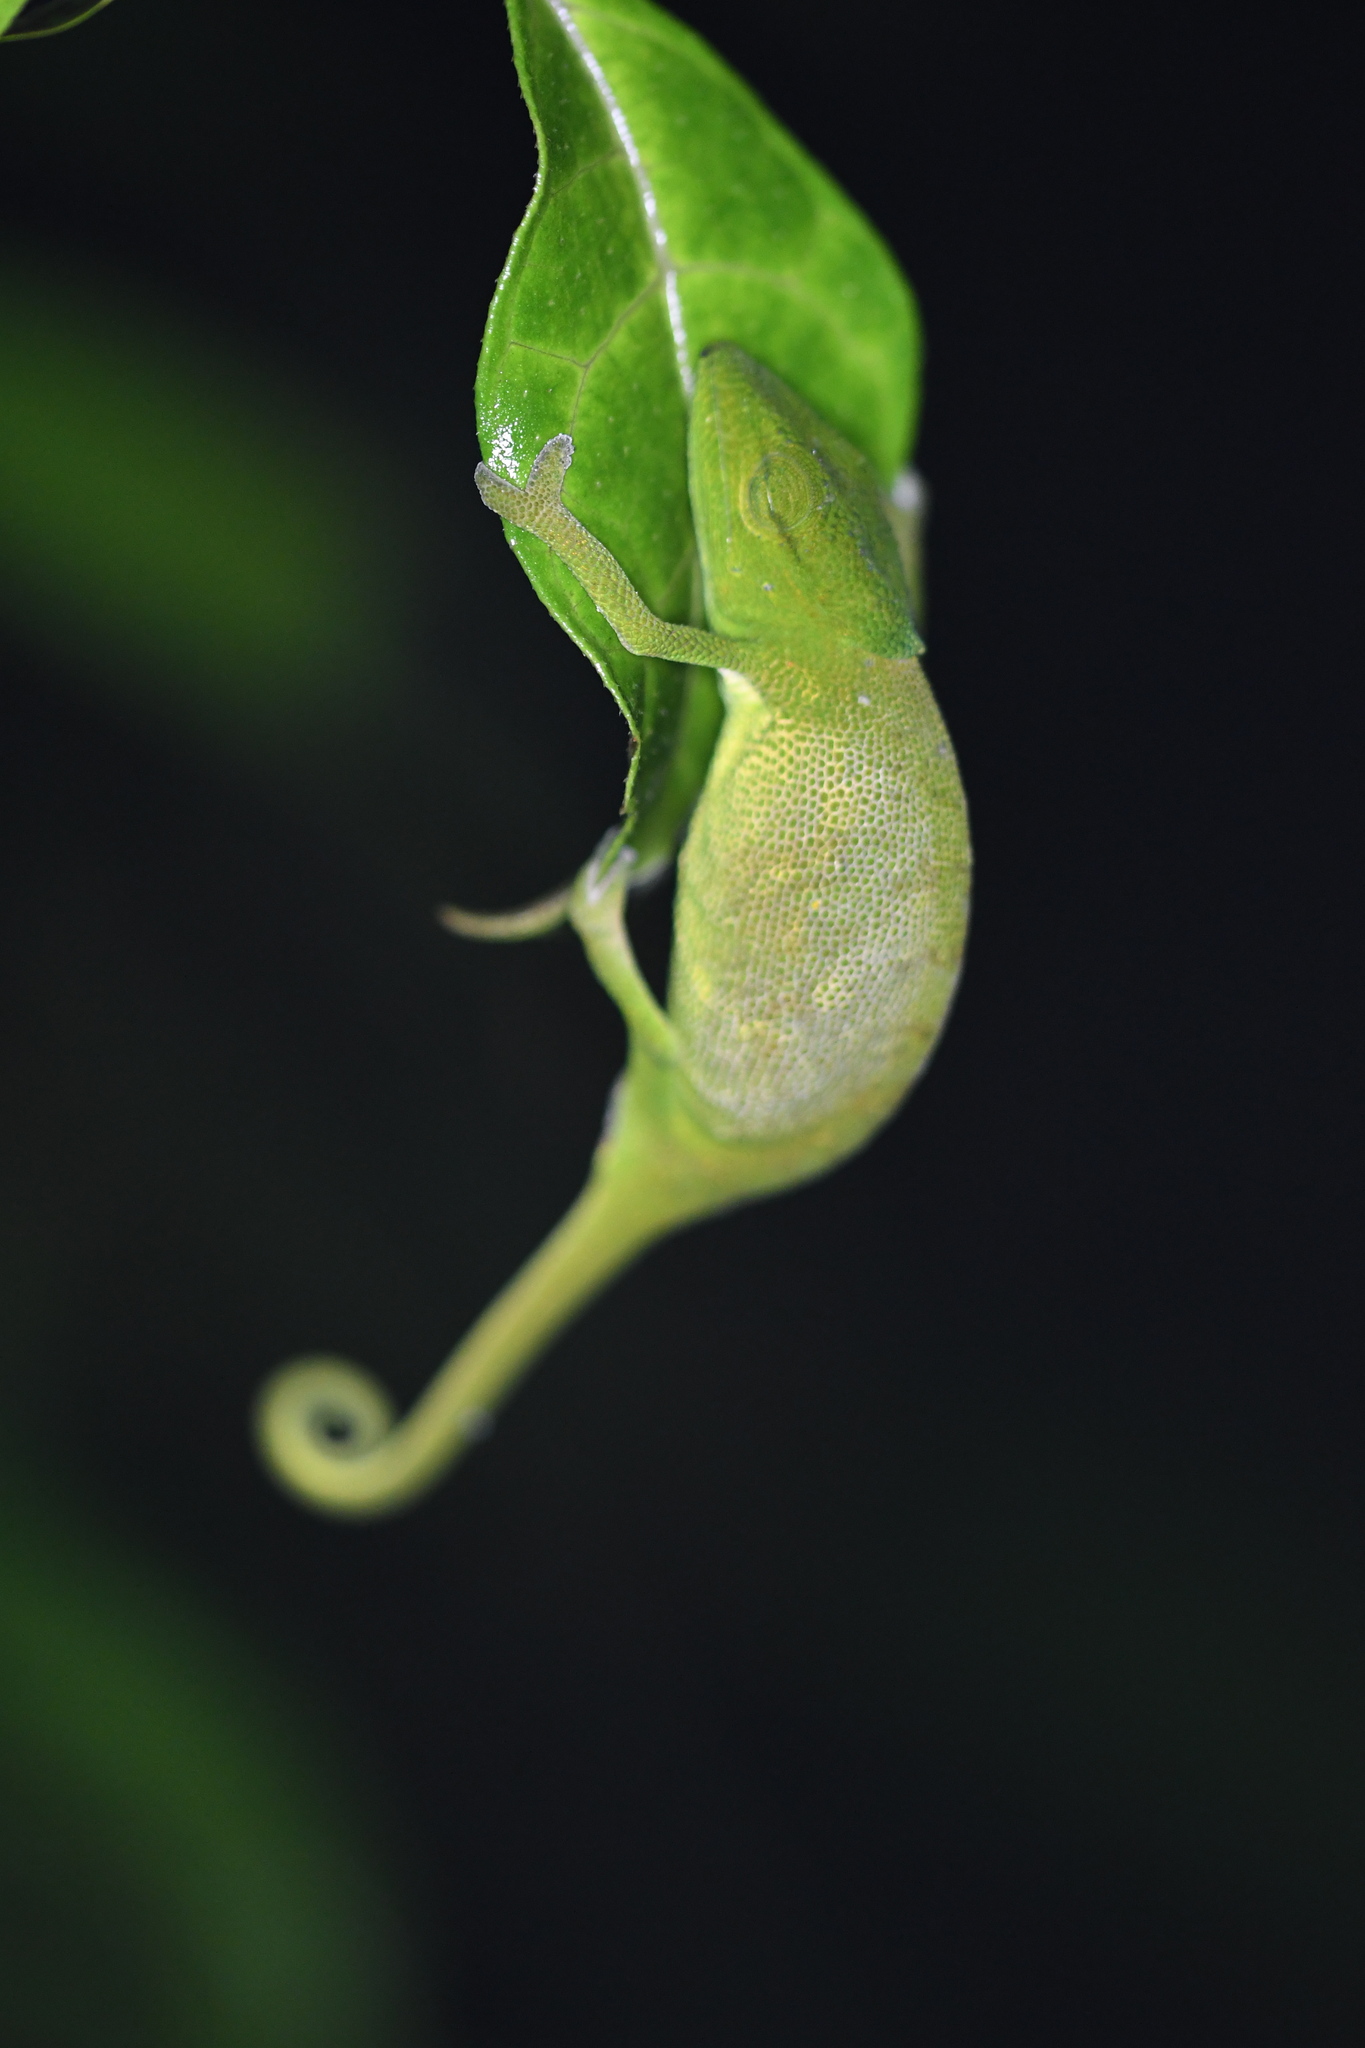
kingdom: Animalia
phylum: Chordata
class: Squamata
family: Chamaeleonidae
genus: Calumma
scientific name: Calumma glawi
